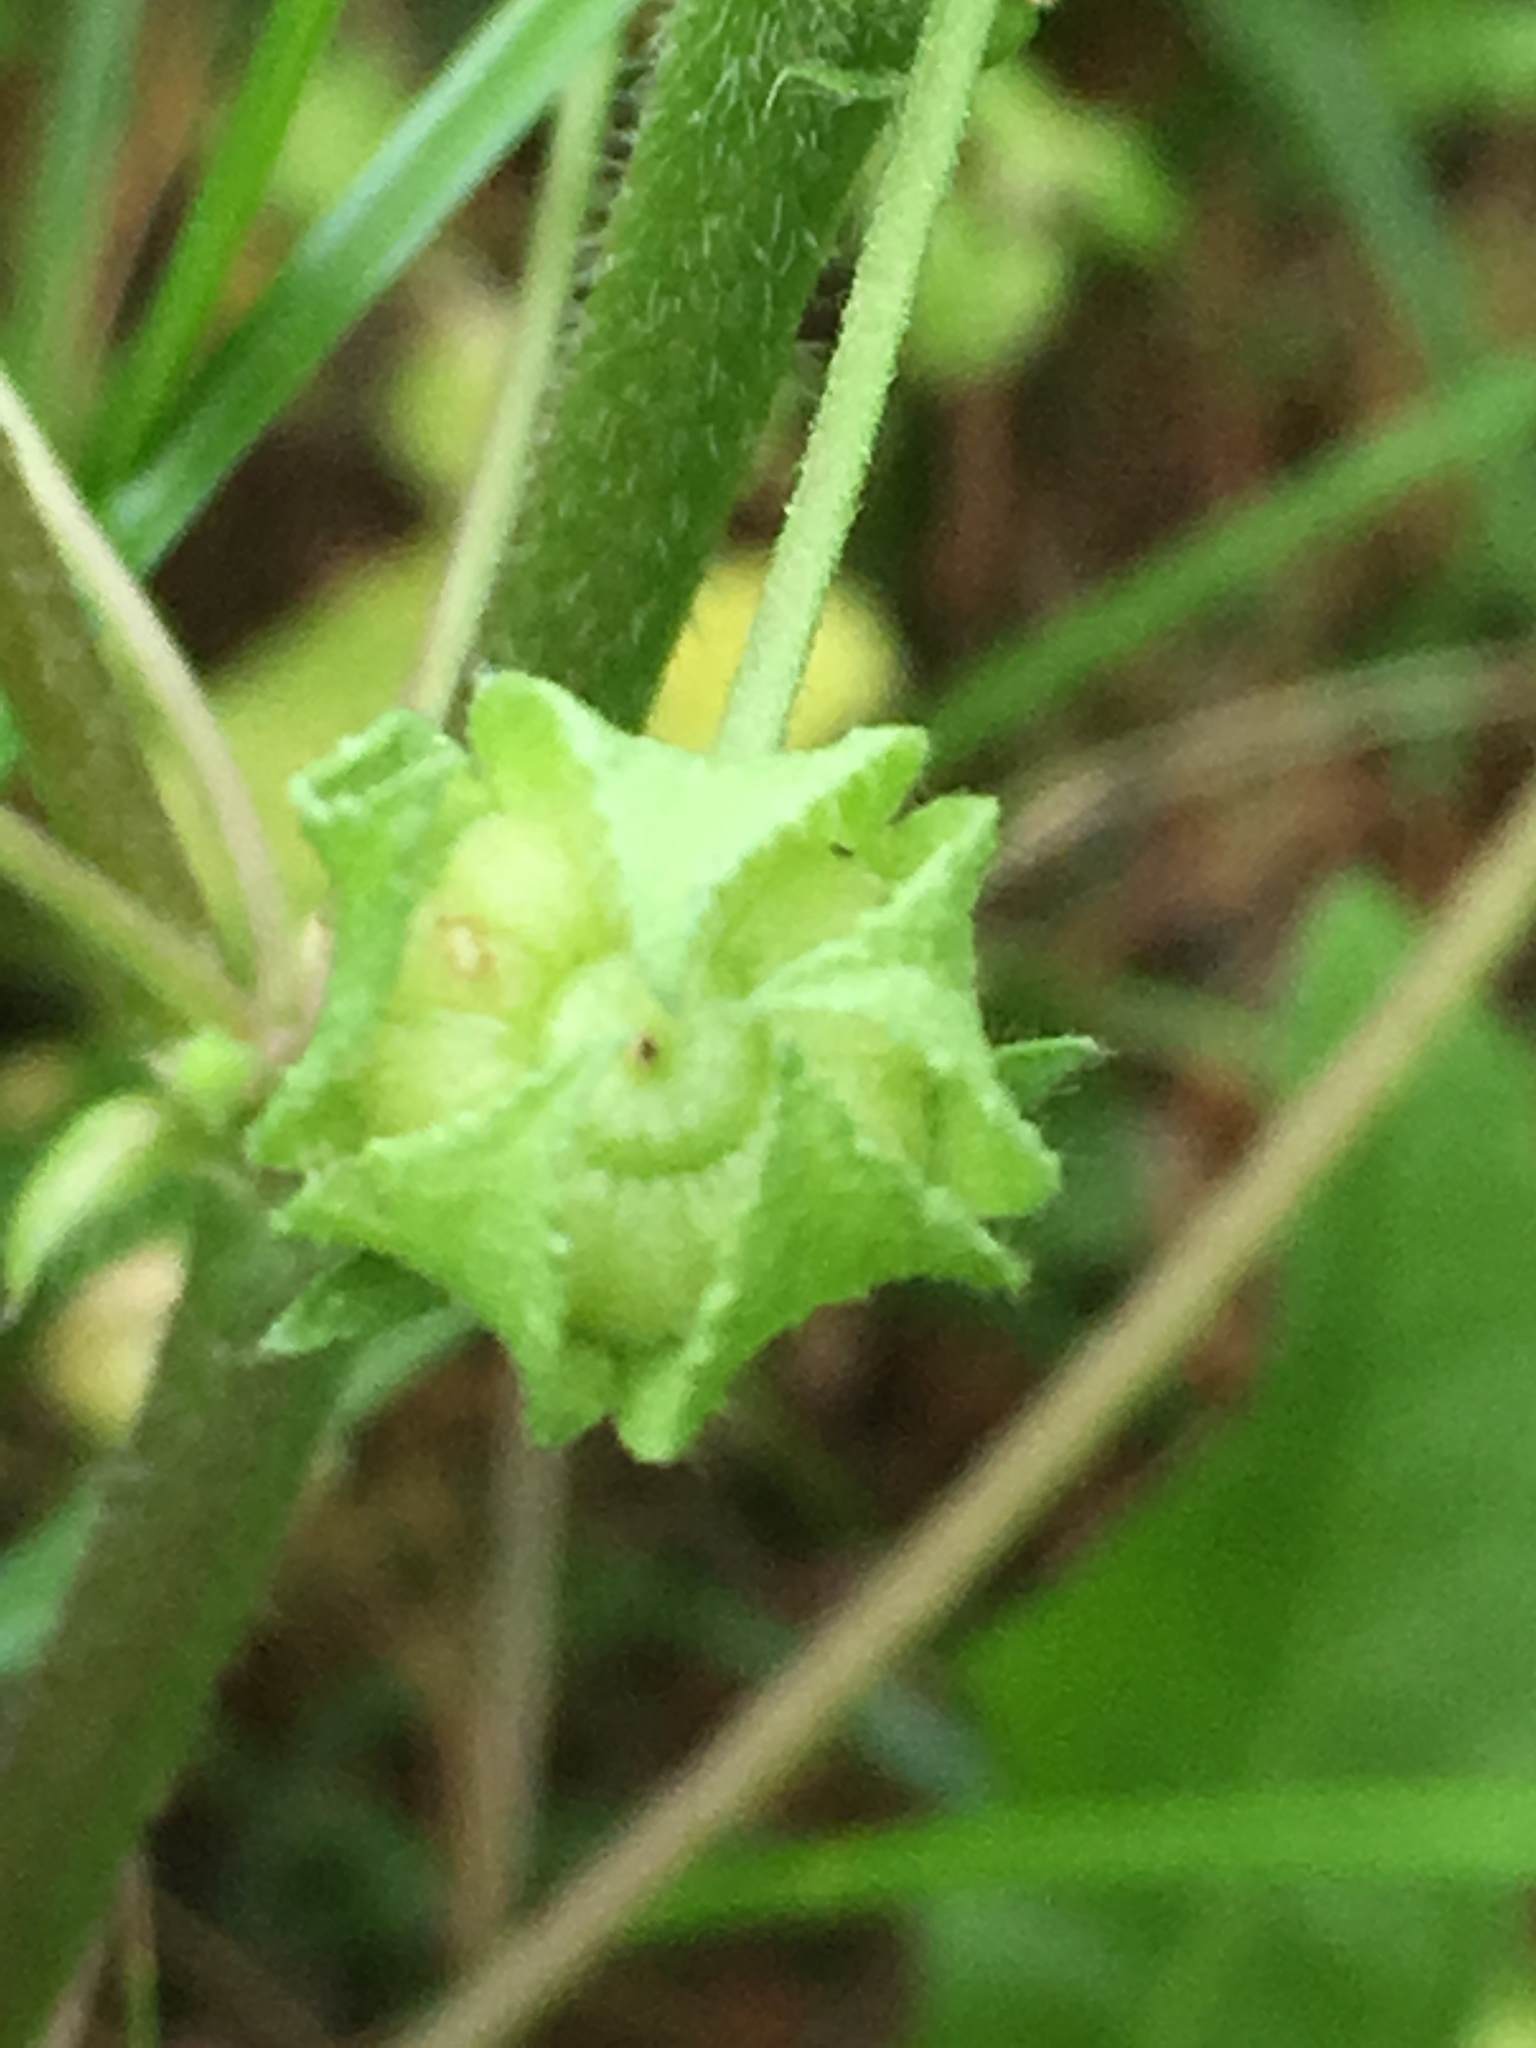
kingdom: Plantae
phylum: Tracheophyta
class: Magnoliopsida
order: Malvales
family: Malvaceae
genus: Malva
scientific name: Malva neglecta
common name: Common mallow
